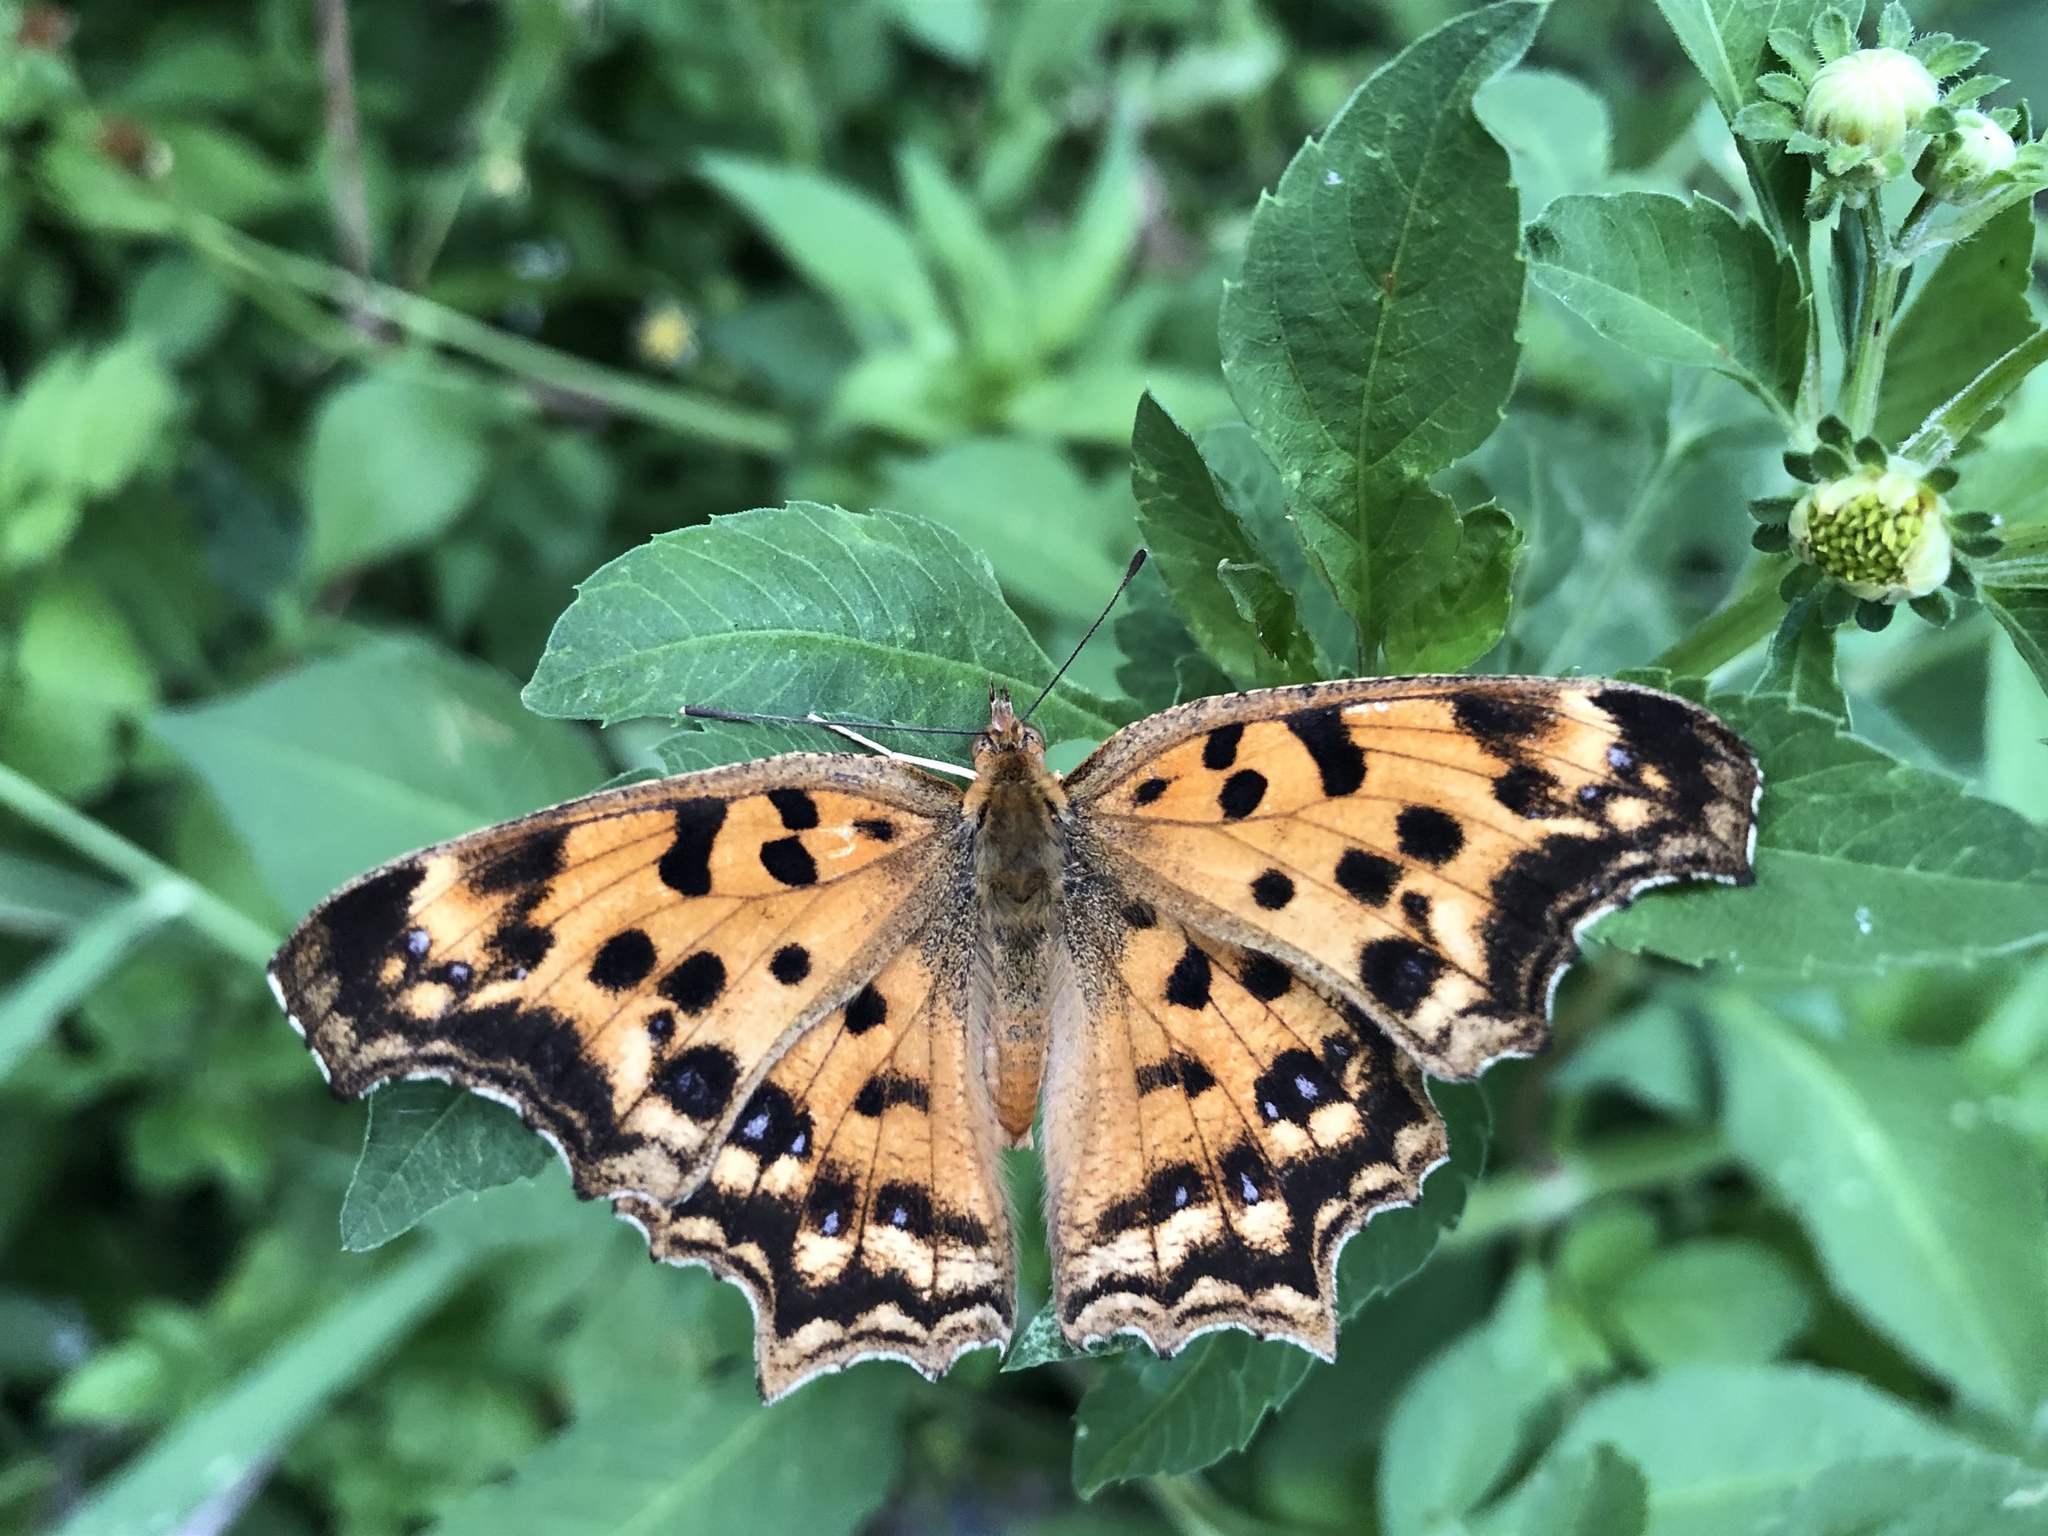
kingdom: Animalia
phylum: Arthropoda
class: Insecta
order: Lepidoptera
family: Nymphalidae
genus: Polygonia
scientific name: Polygonia c-aureum
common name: Asian comma
